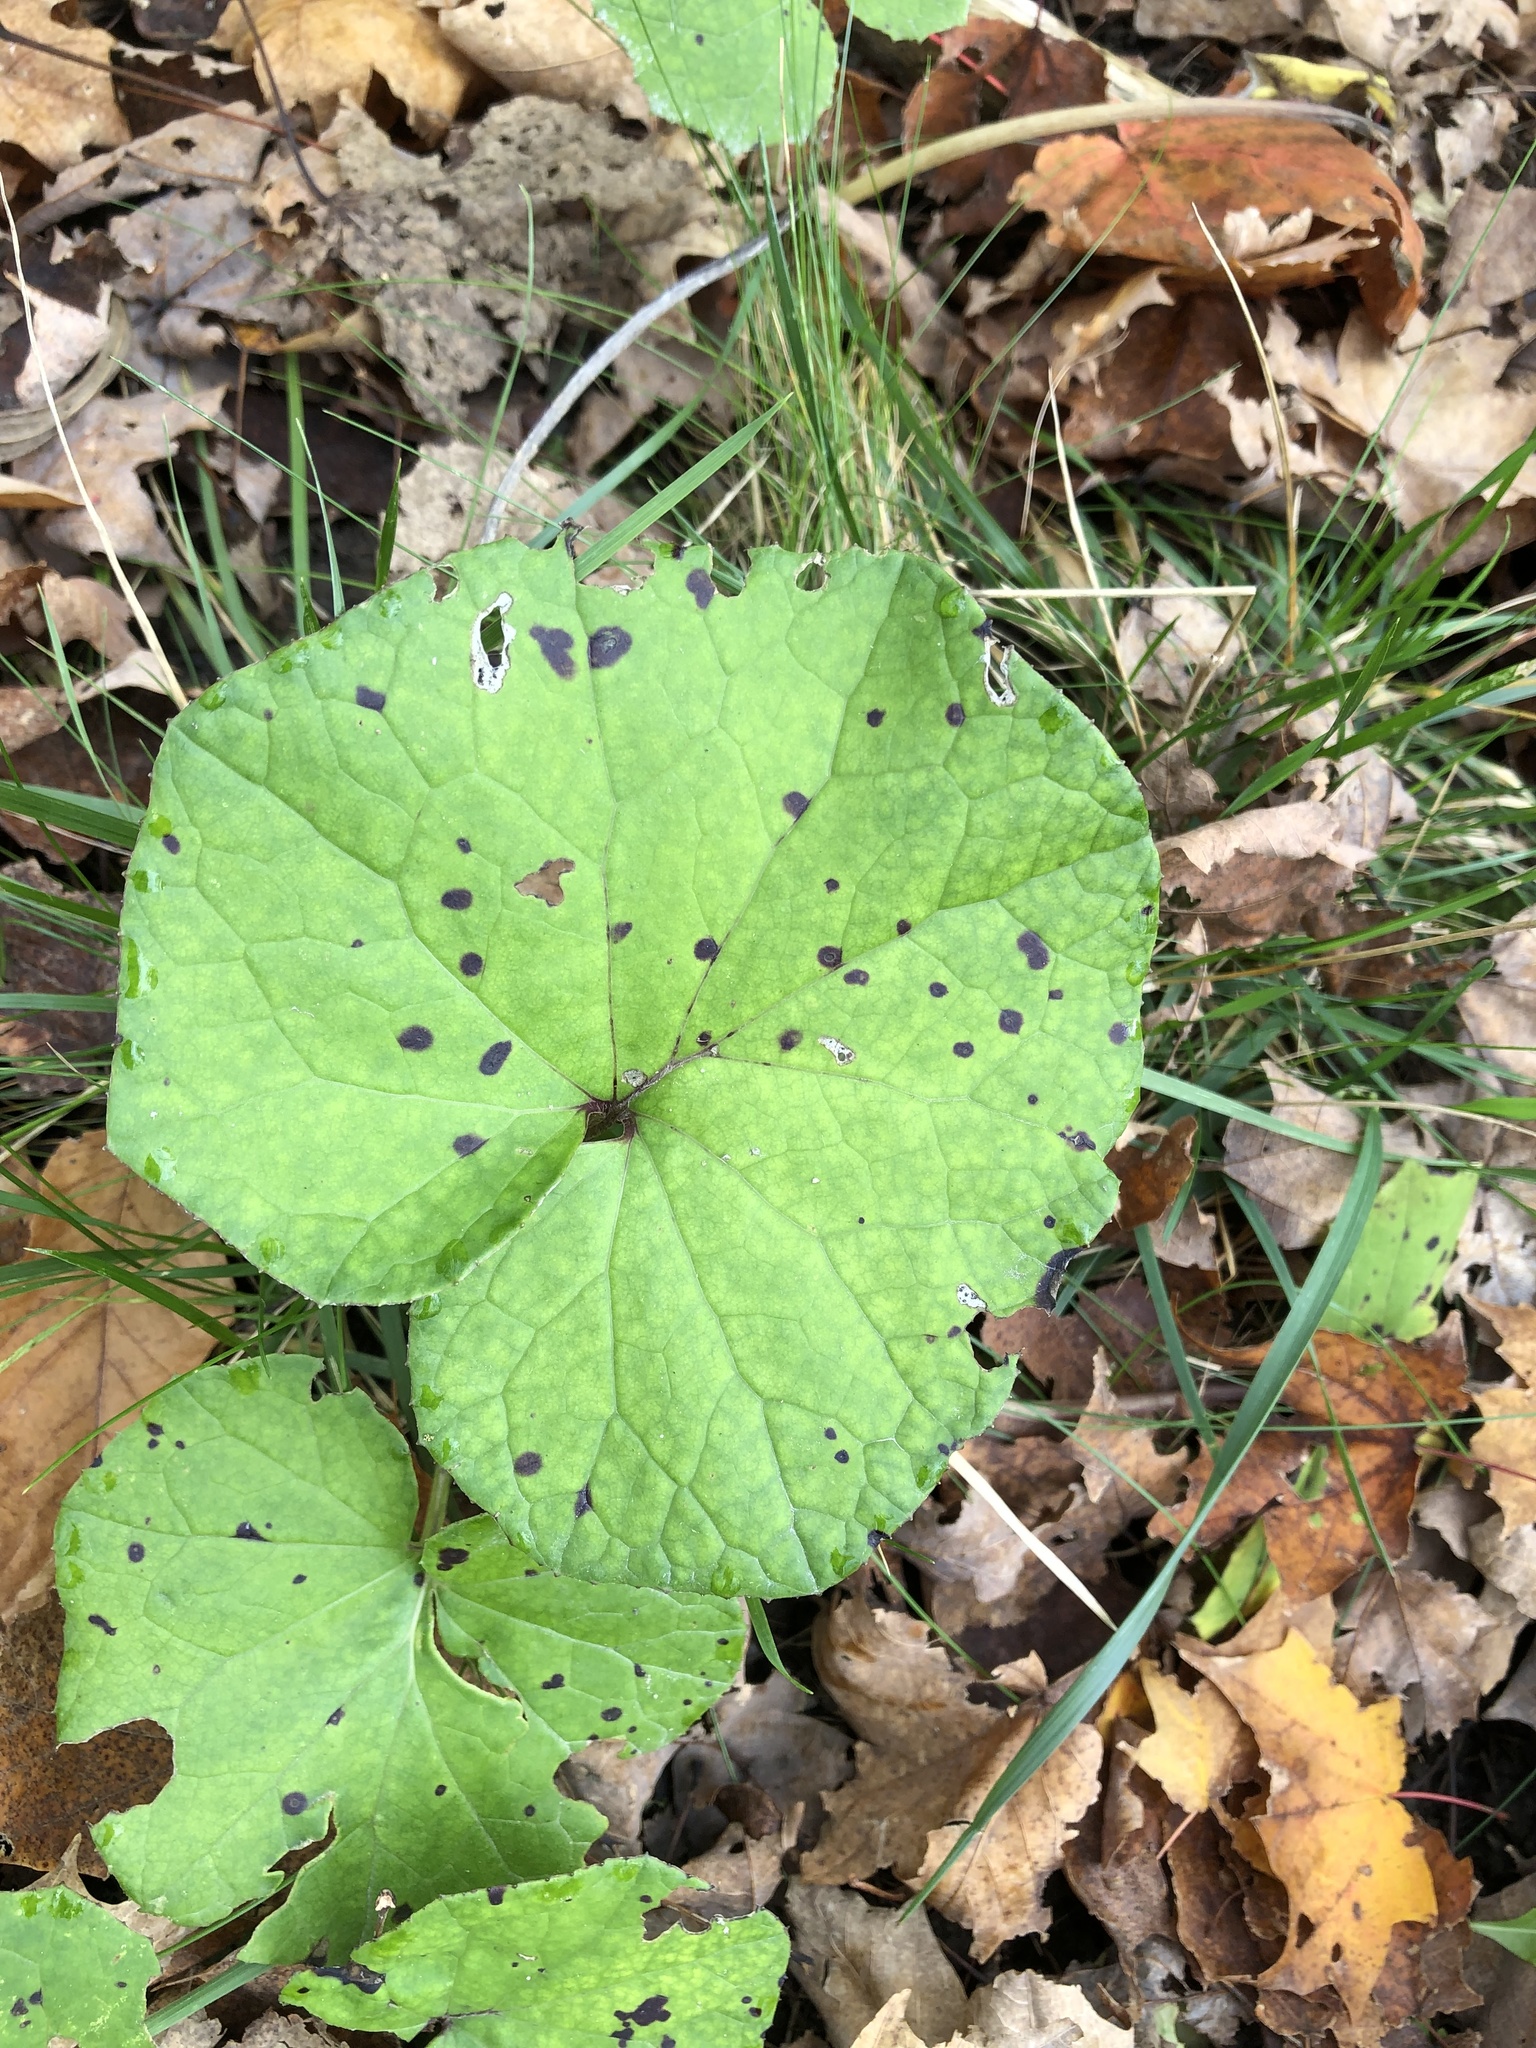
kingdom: Plantae
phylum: Tracheophyta
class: Magnoliopsida
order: Asterales
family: Asteraceae
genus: Tussilago
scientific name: Tussilago farfara
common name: Coltsfoot
